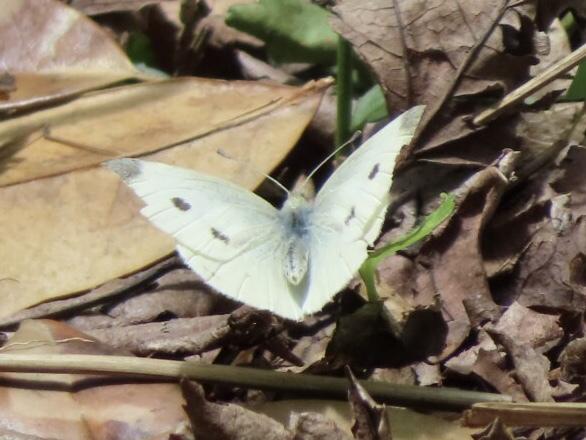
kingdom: Animalia
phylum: Arthropoda
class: Insecta
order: Lepidoptera
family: Pieridae
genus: Pieris
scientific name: Pieris rapae
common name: Small white
